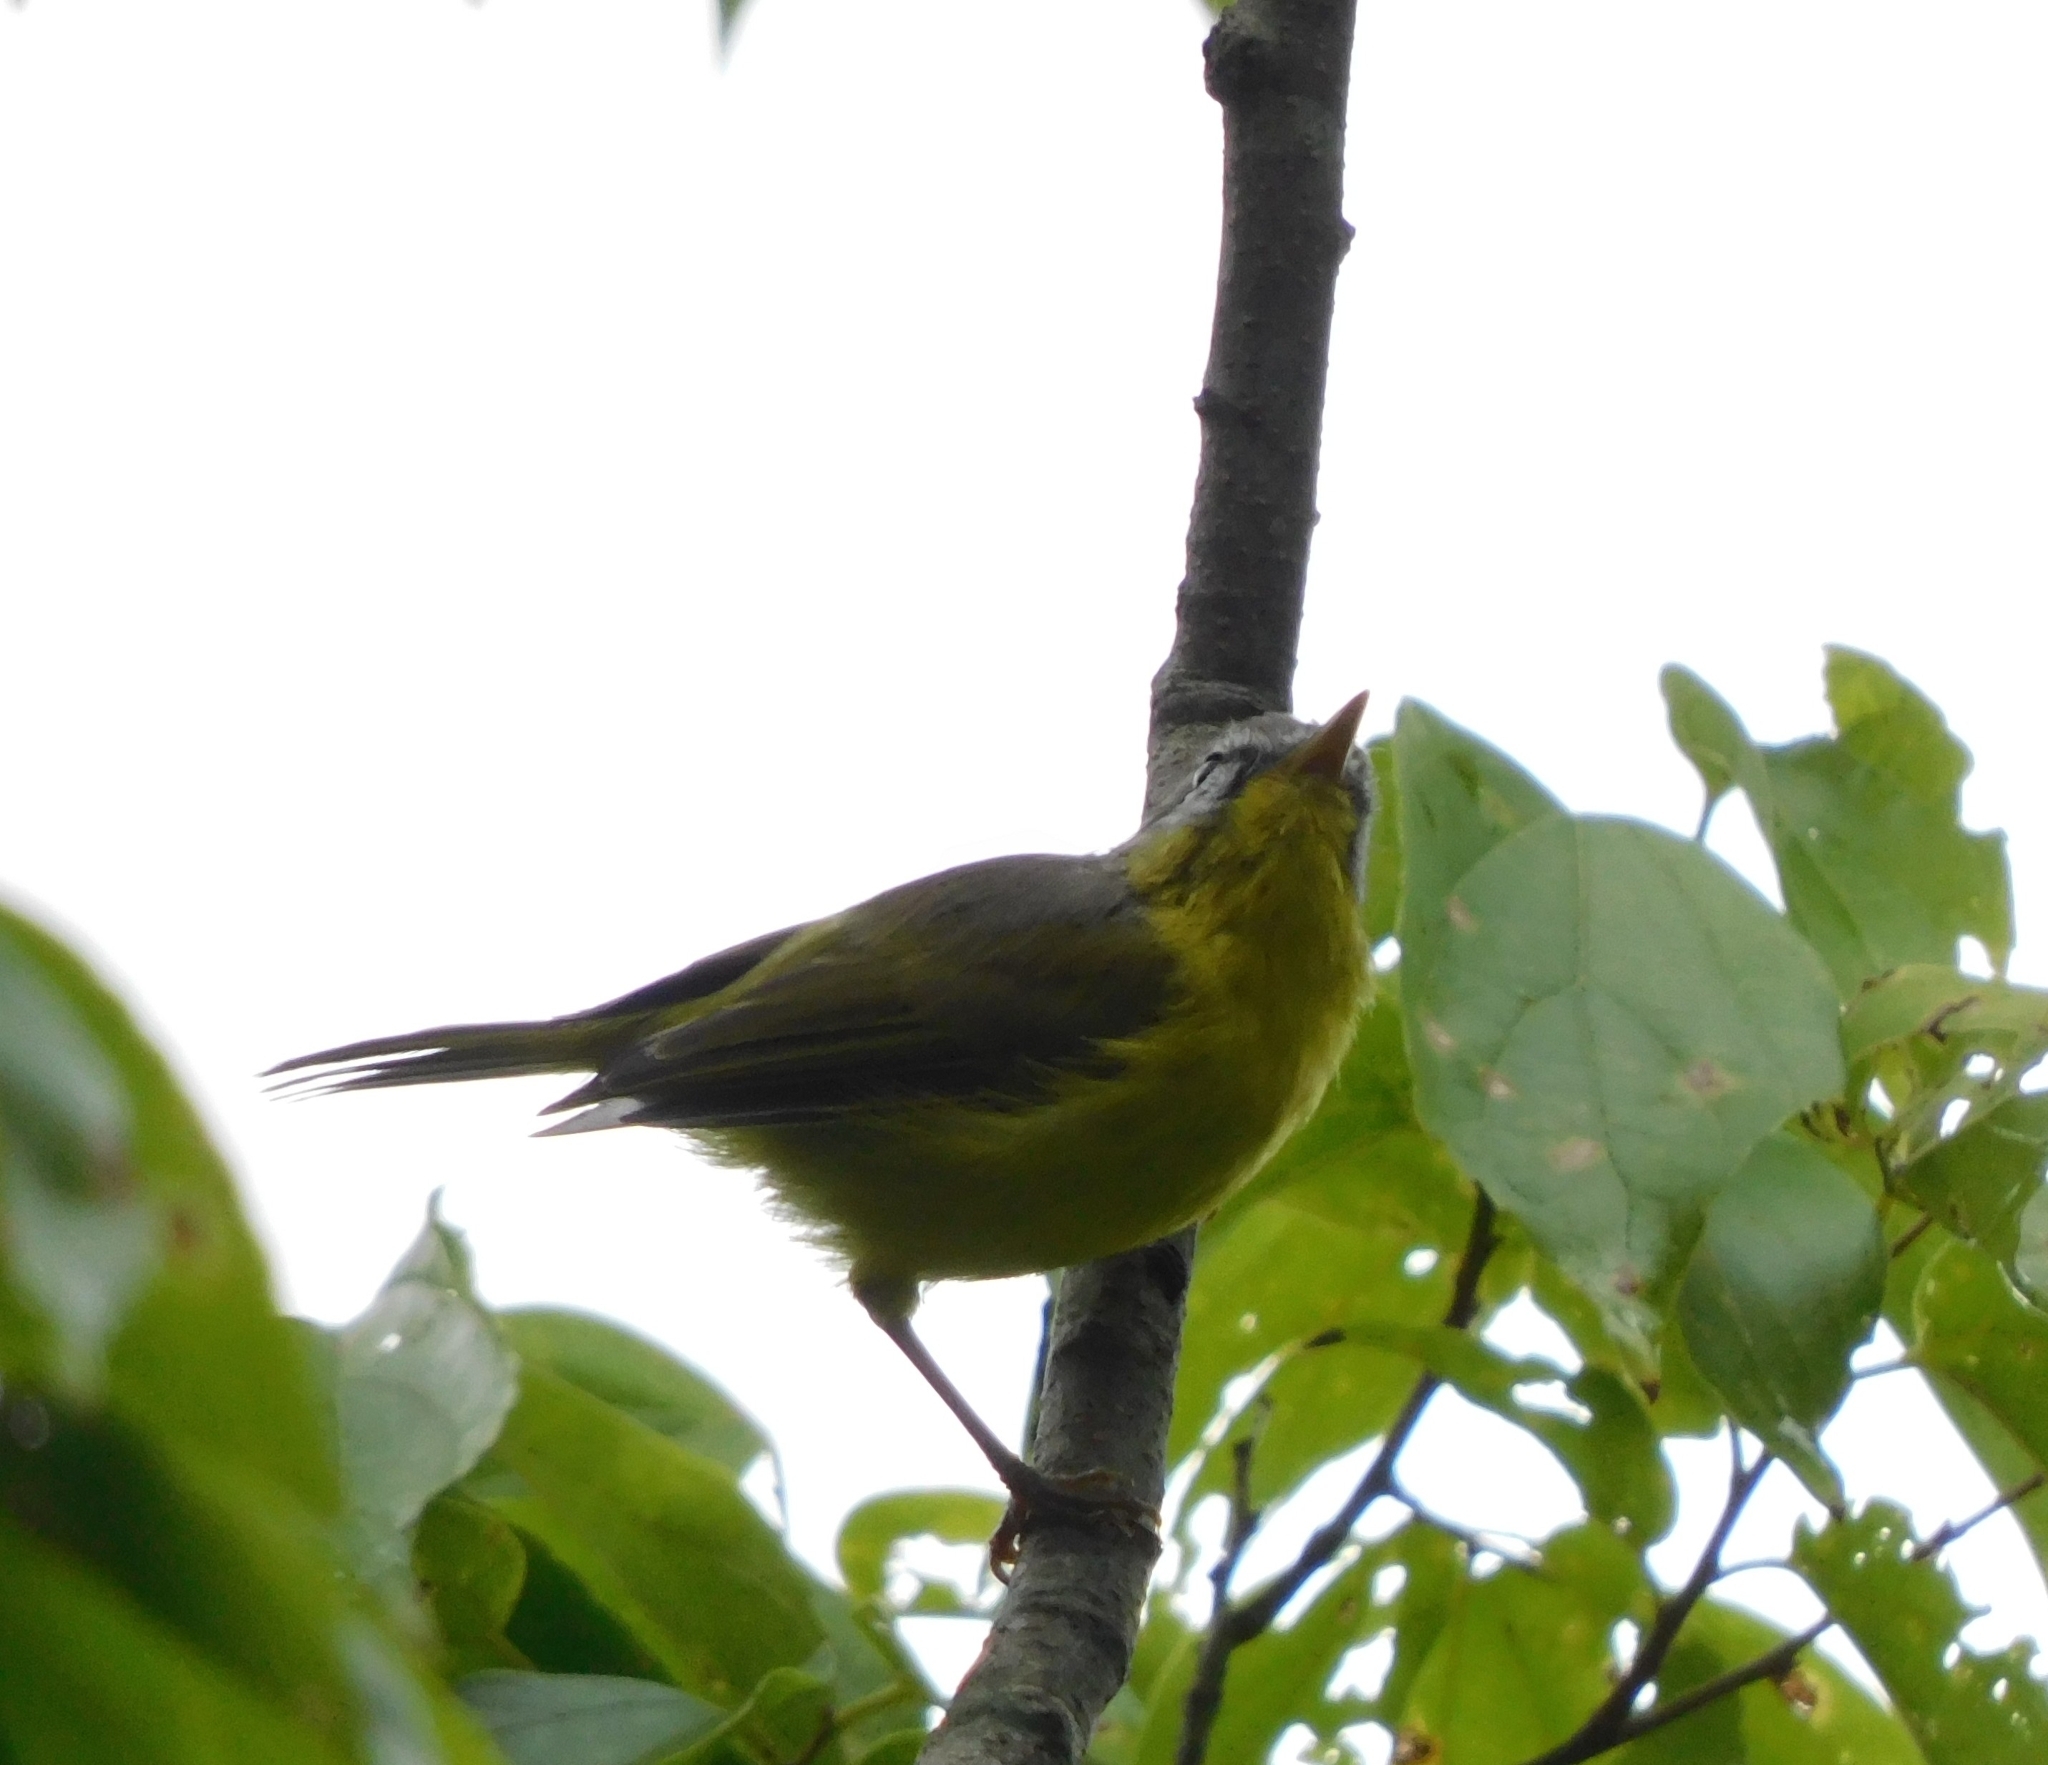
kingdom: Animalia
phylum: Chordata
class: Aves
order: Passeriformes
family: Phylloscopidae
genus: Phylloscopus
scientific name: Phylloscopus xanthoschistos
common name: Grey-hooded warbler
